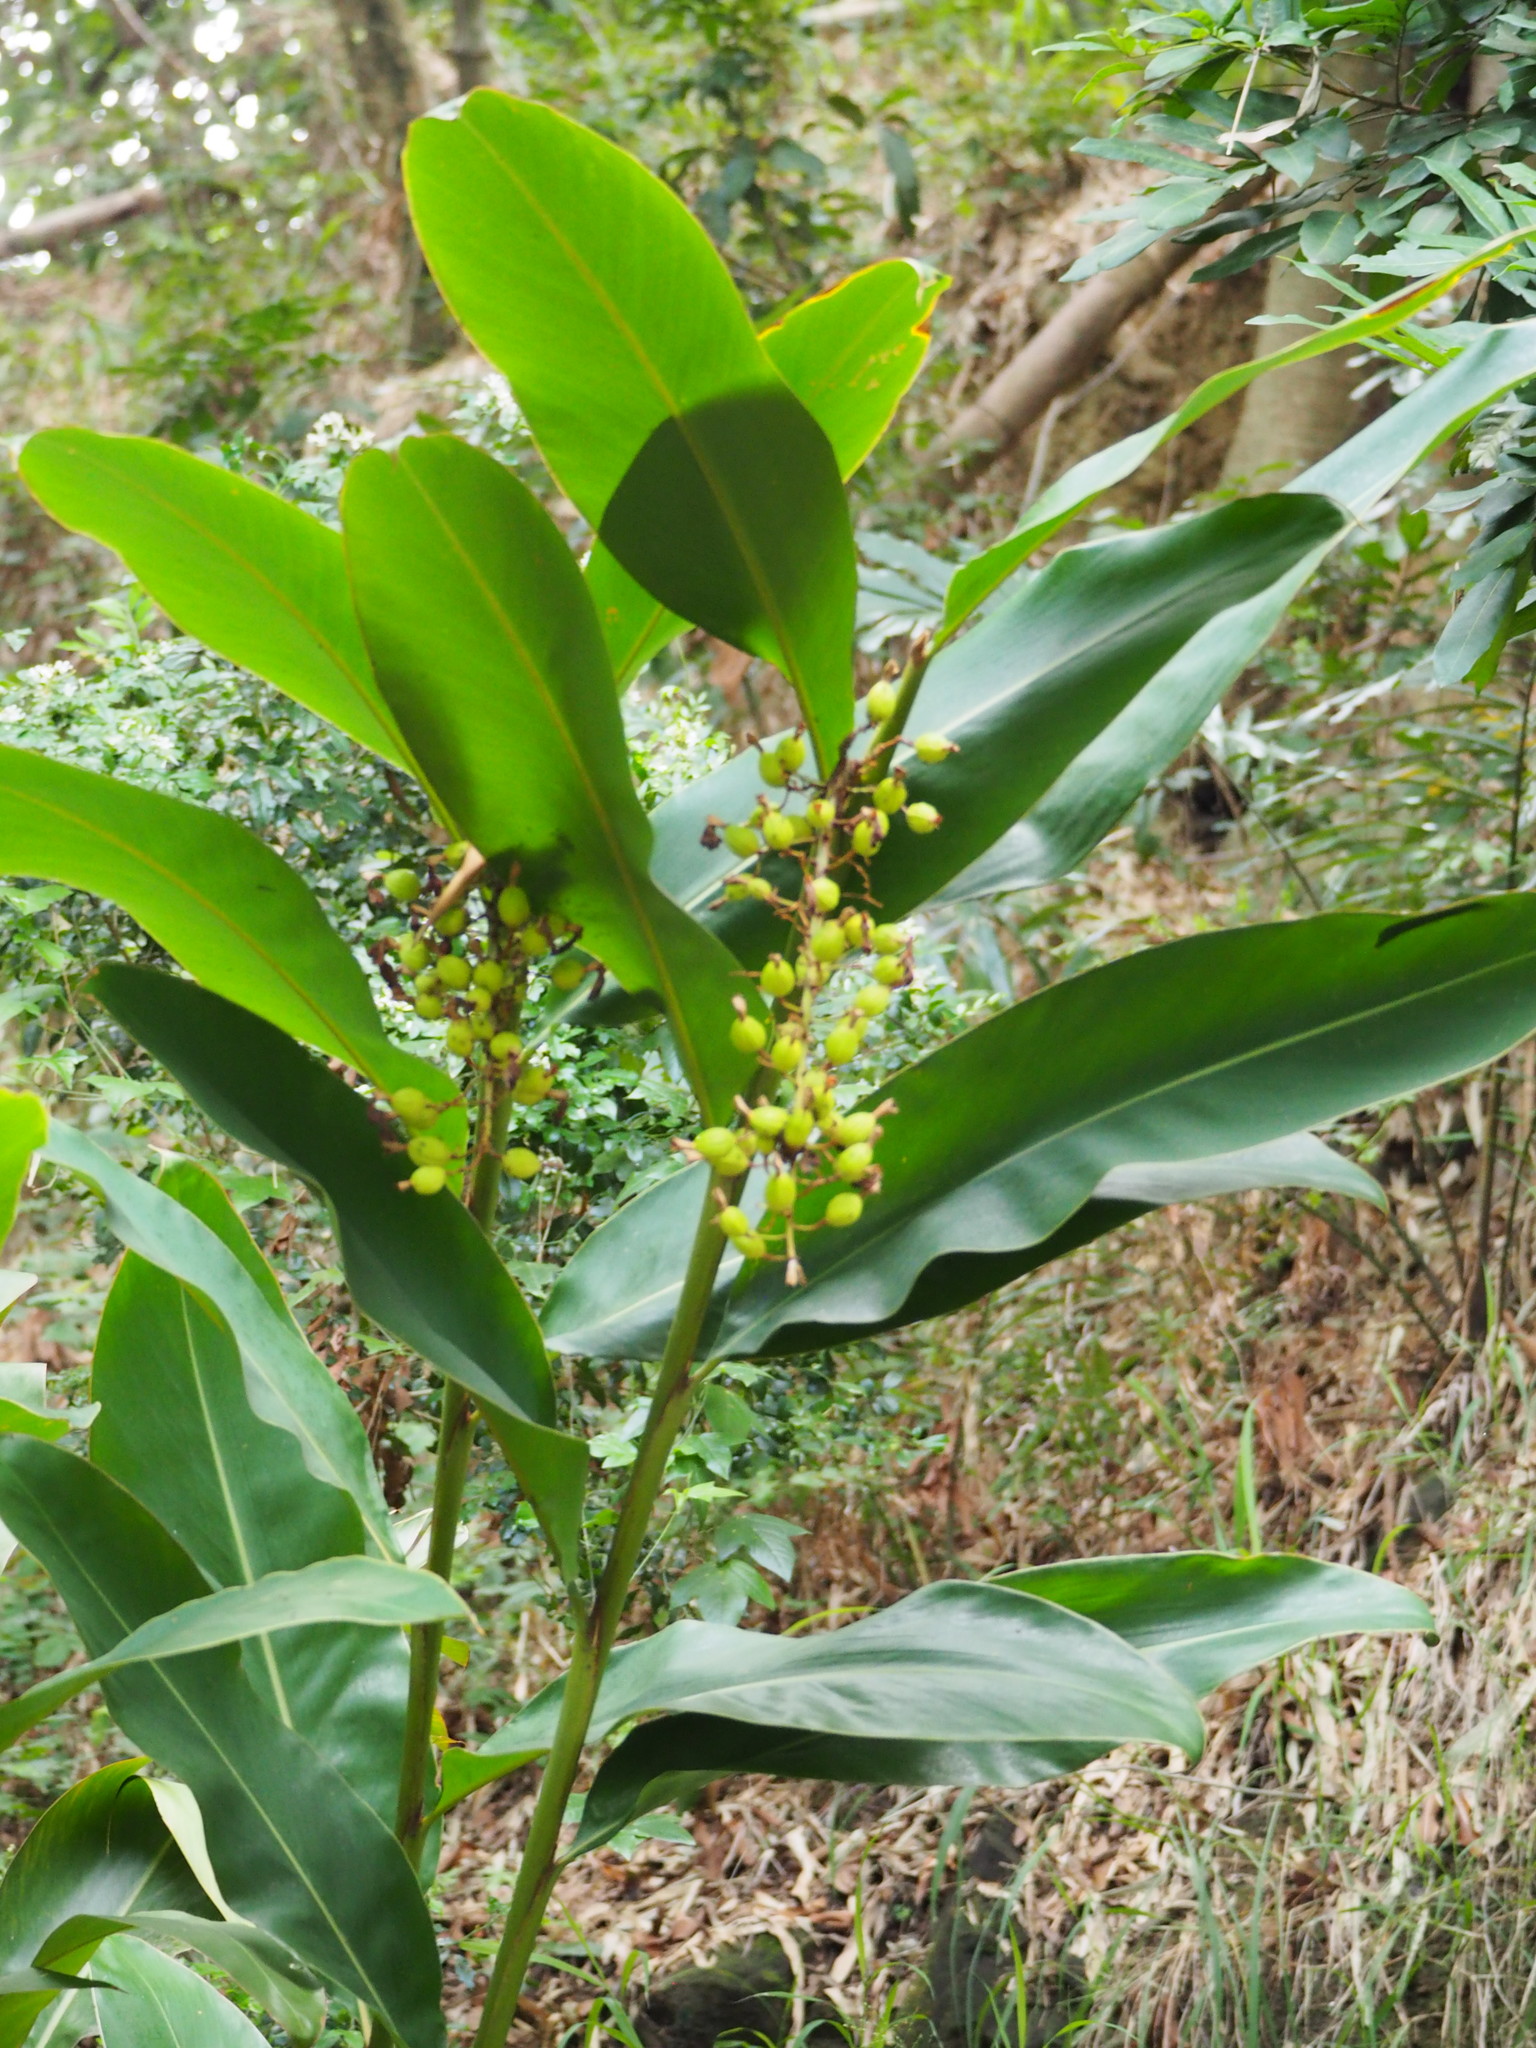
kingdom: Plantae
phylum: Tracheophyta
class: Liliopsida
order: Zingiberales
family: Zingiberaceae
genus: Alpinia
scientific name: Alpinia zerumbet
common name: Shellplant
